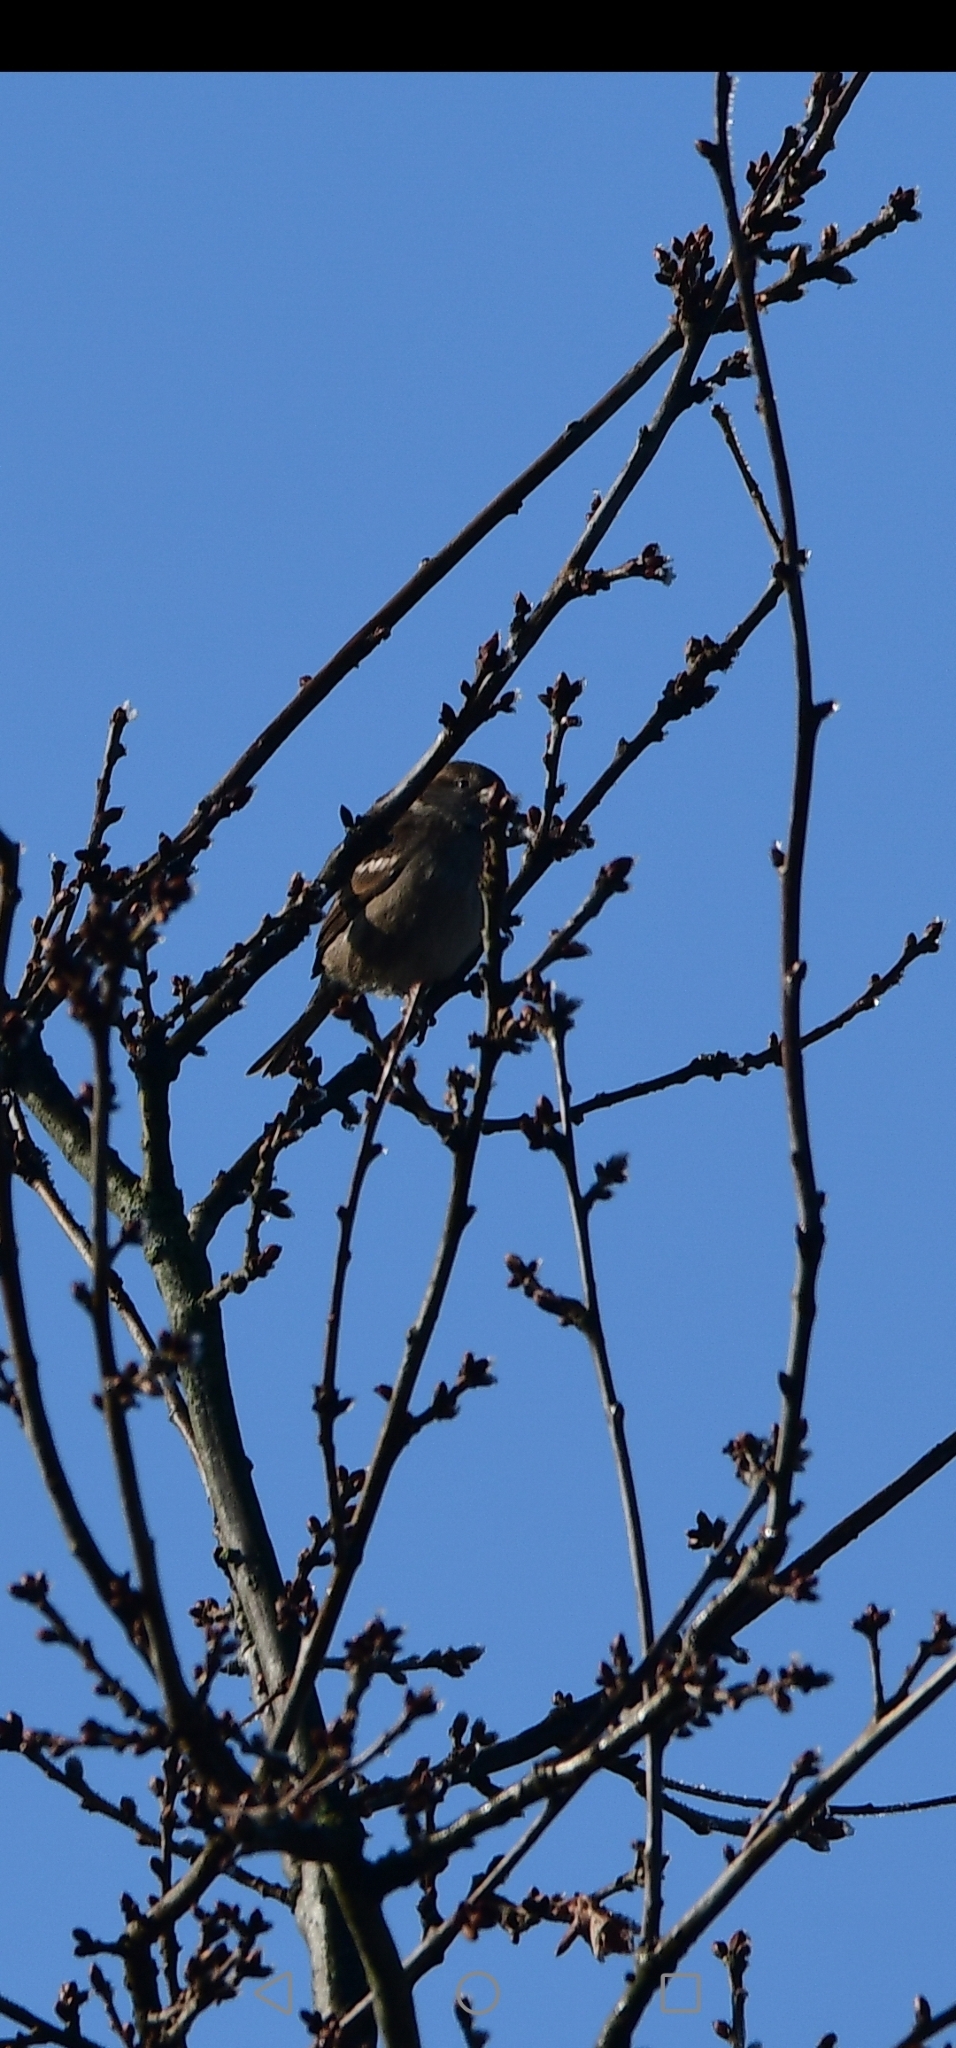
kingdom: Animalia
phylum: Chordata
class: Aves
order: Passeriformes
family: Passeridae
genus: Passer
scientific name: Passer domesticus
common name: House sparrow
